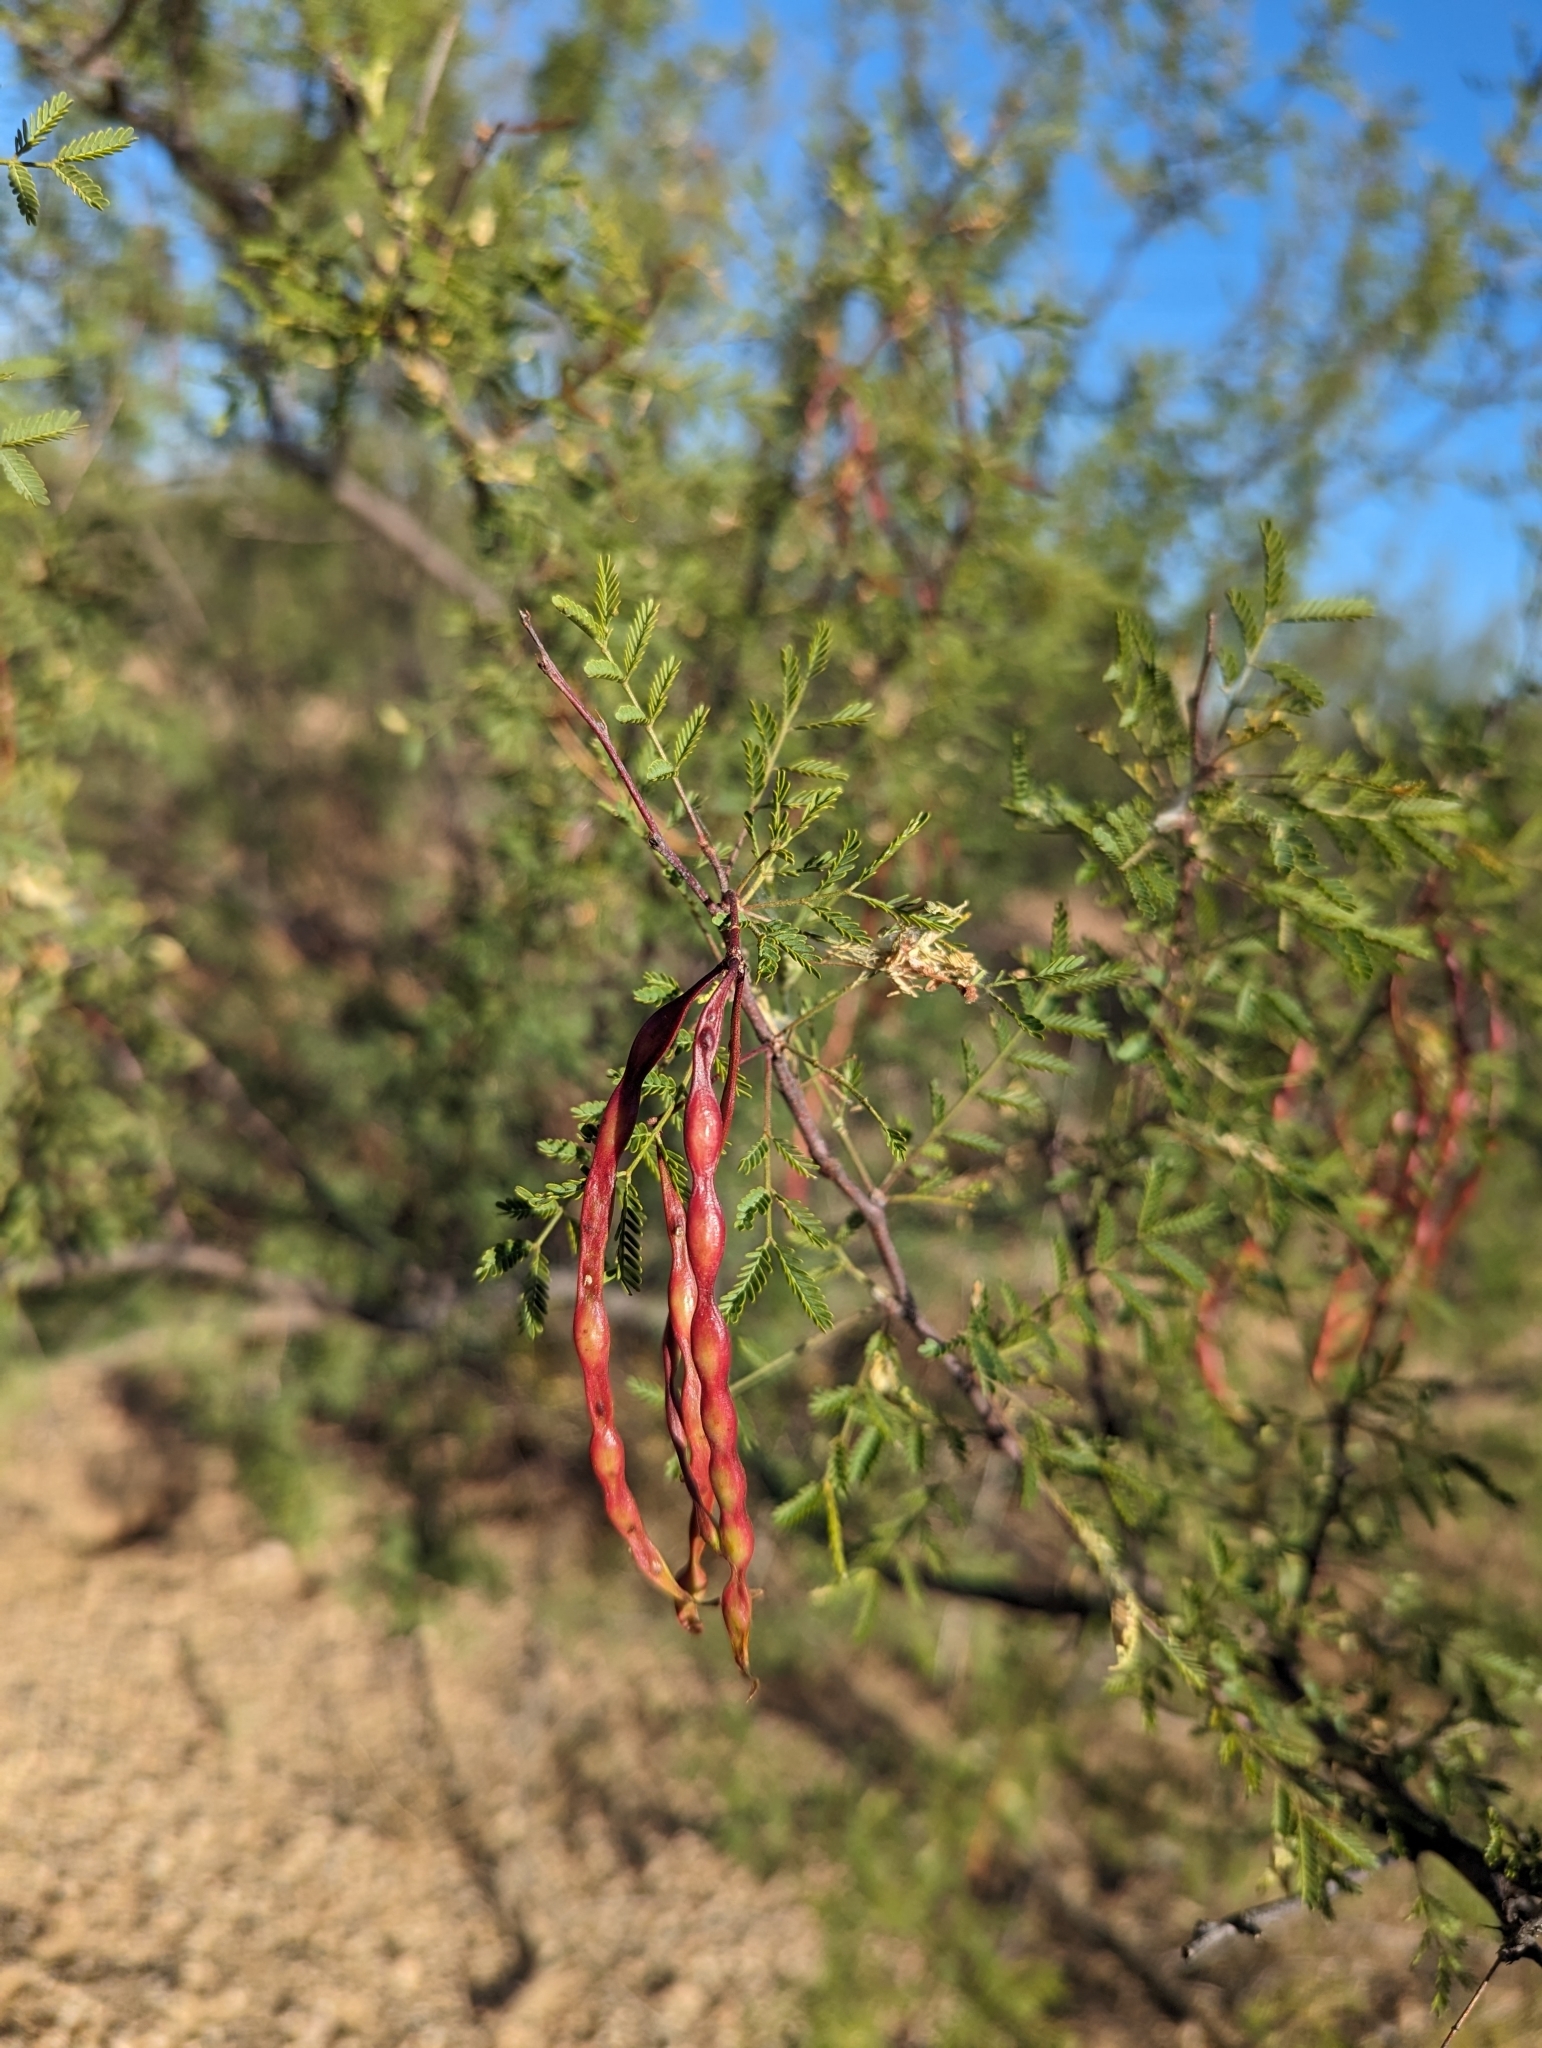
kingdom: Plantae
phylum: Tracheophyta
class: Magnoliopsida
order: Fabales
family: Fabaceae
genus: Vachellia
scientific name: Vachellia constricta
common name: Mescat acacia
